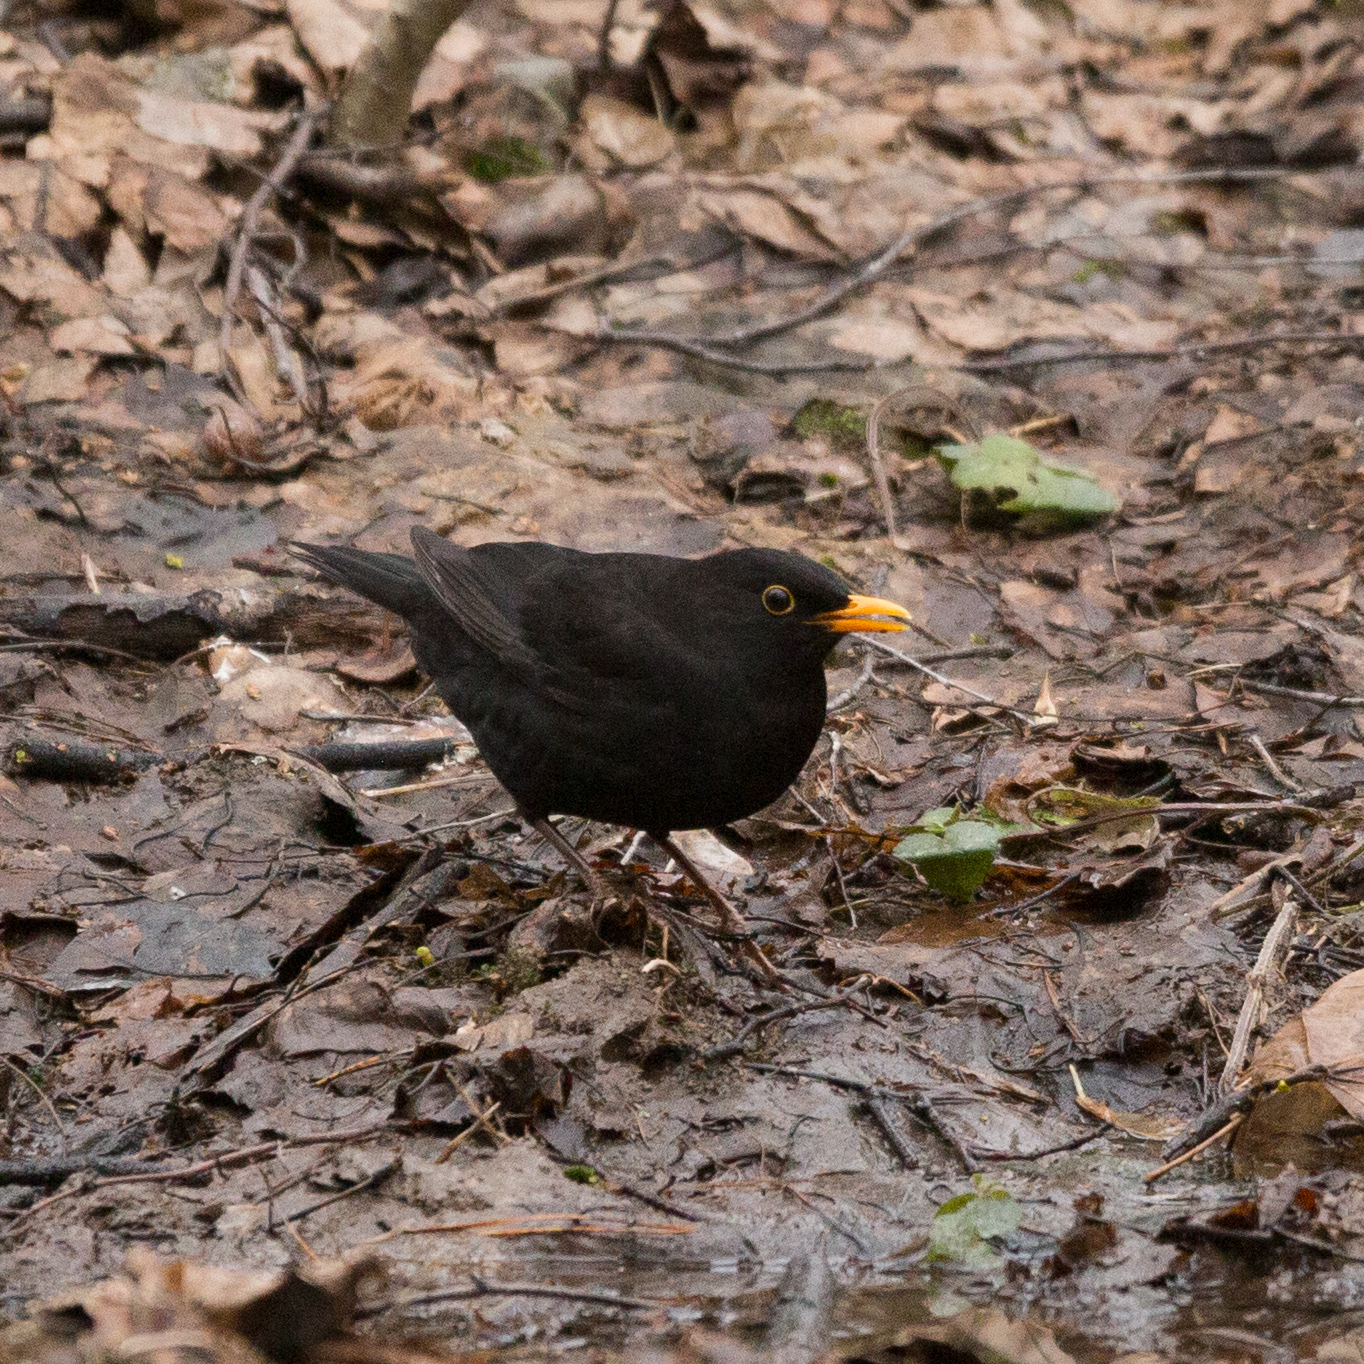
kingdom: Animalia
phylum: Chordata
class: Aves
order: Passeriformes
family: Turdidae
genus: Turdus
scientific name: Turdus merula
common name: Common blackbird
